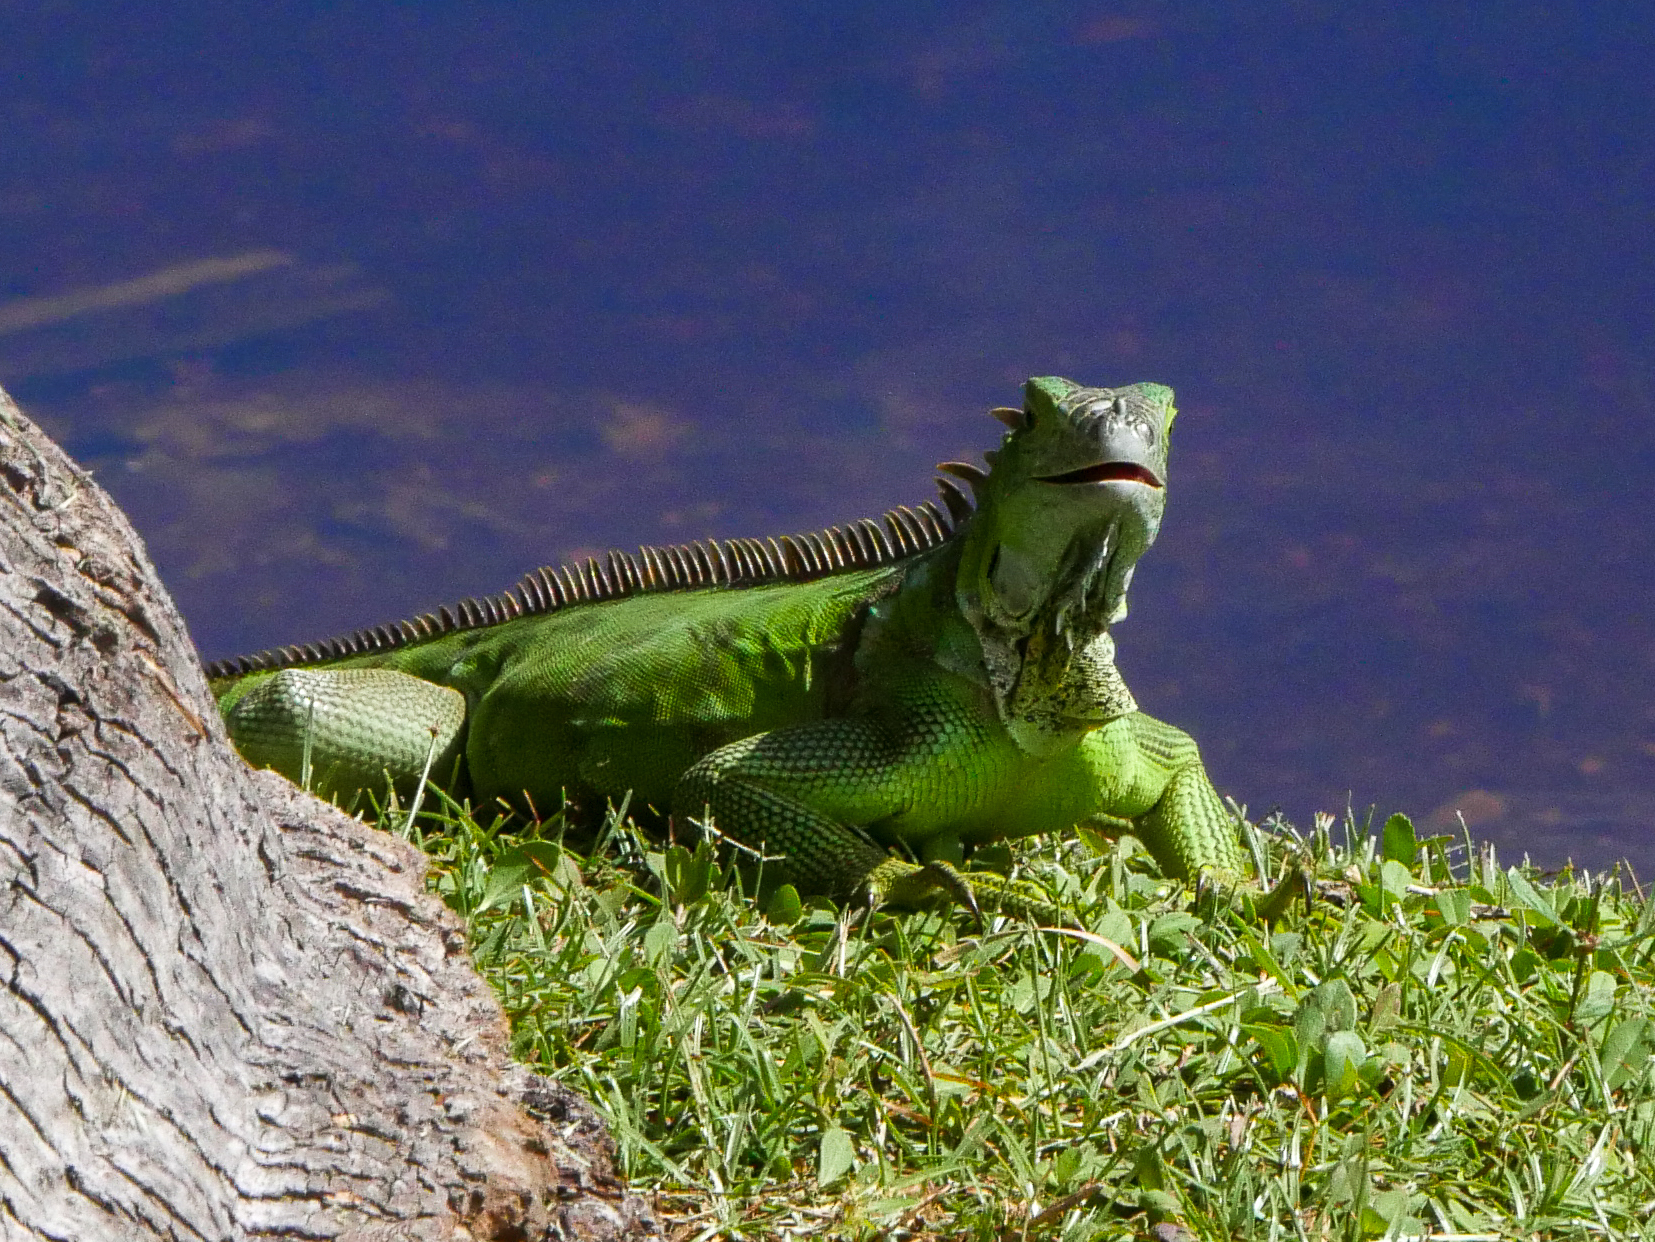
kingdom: Animalia
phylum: Chordata
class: Squamata
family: Iguanidae
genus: Iguana
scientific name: Iguana iguana
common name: Green iguana
